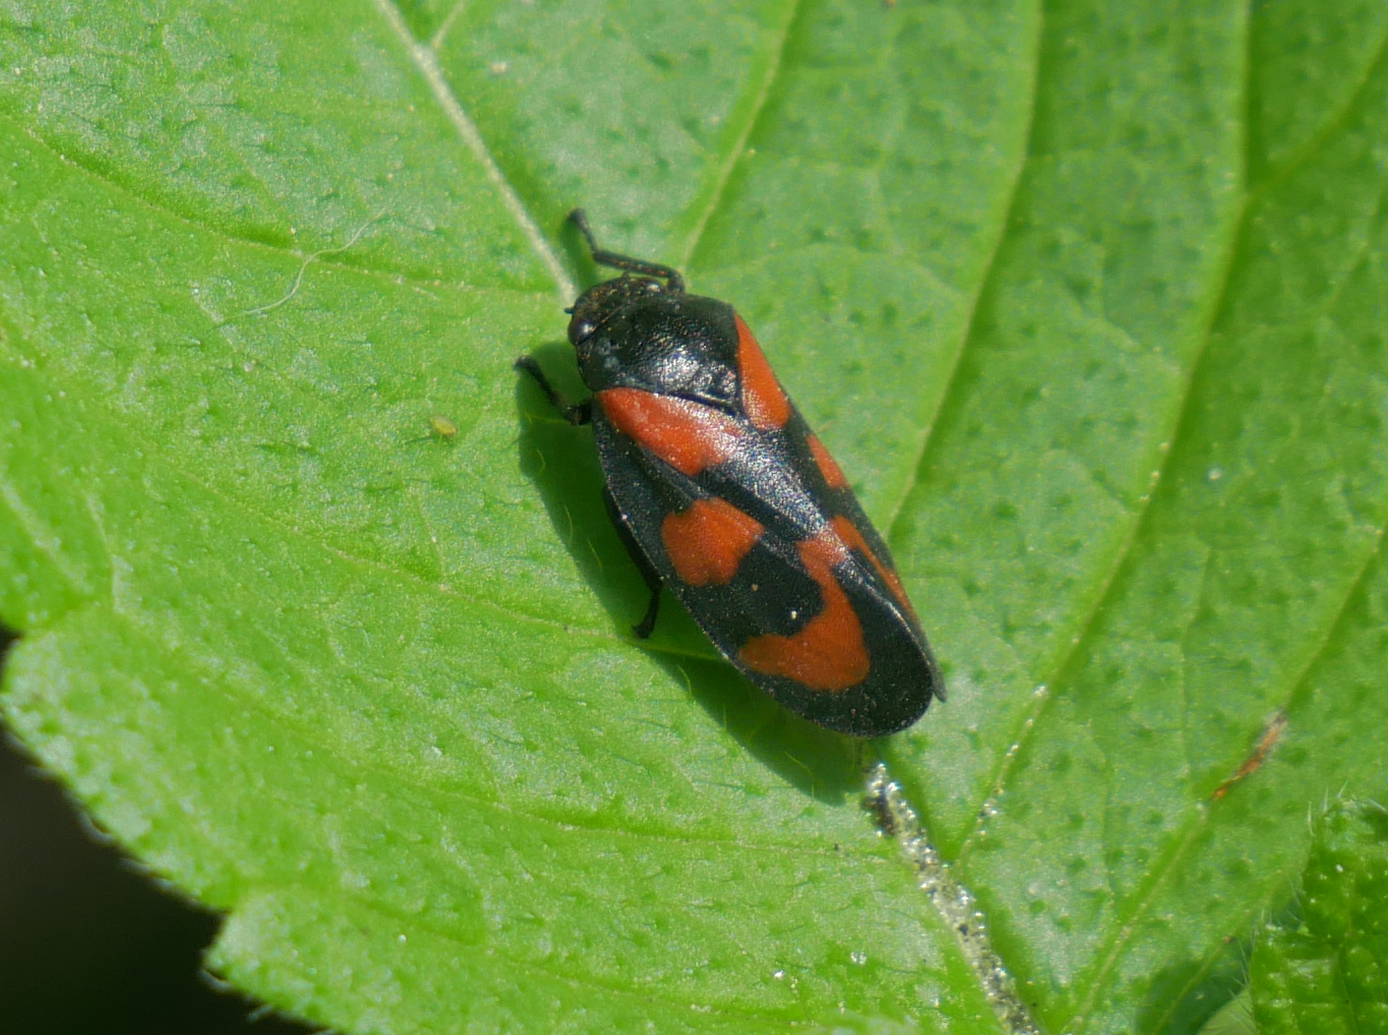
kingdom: Animalia
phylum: Arthropoda
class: Insecta
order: Hemiptera
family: Cercopidae
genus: Cercopis
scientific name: Cercopis vulnerata
